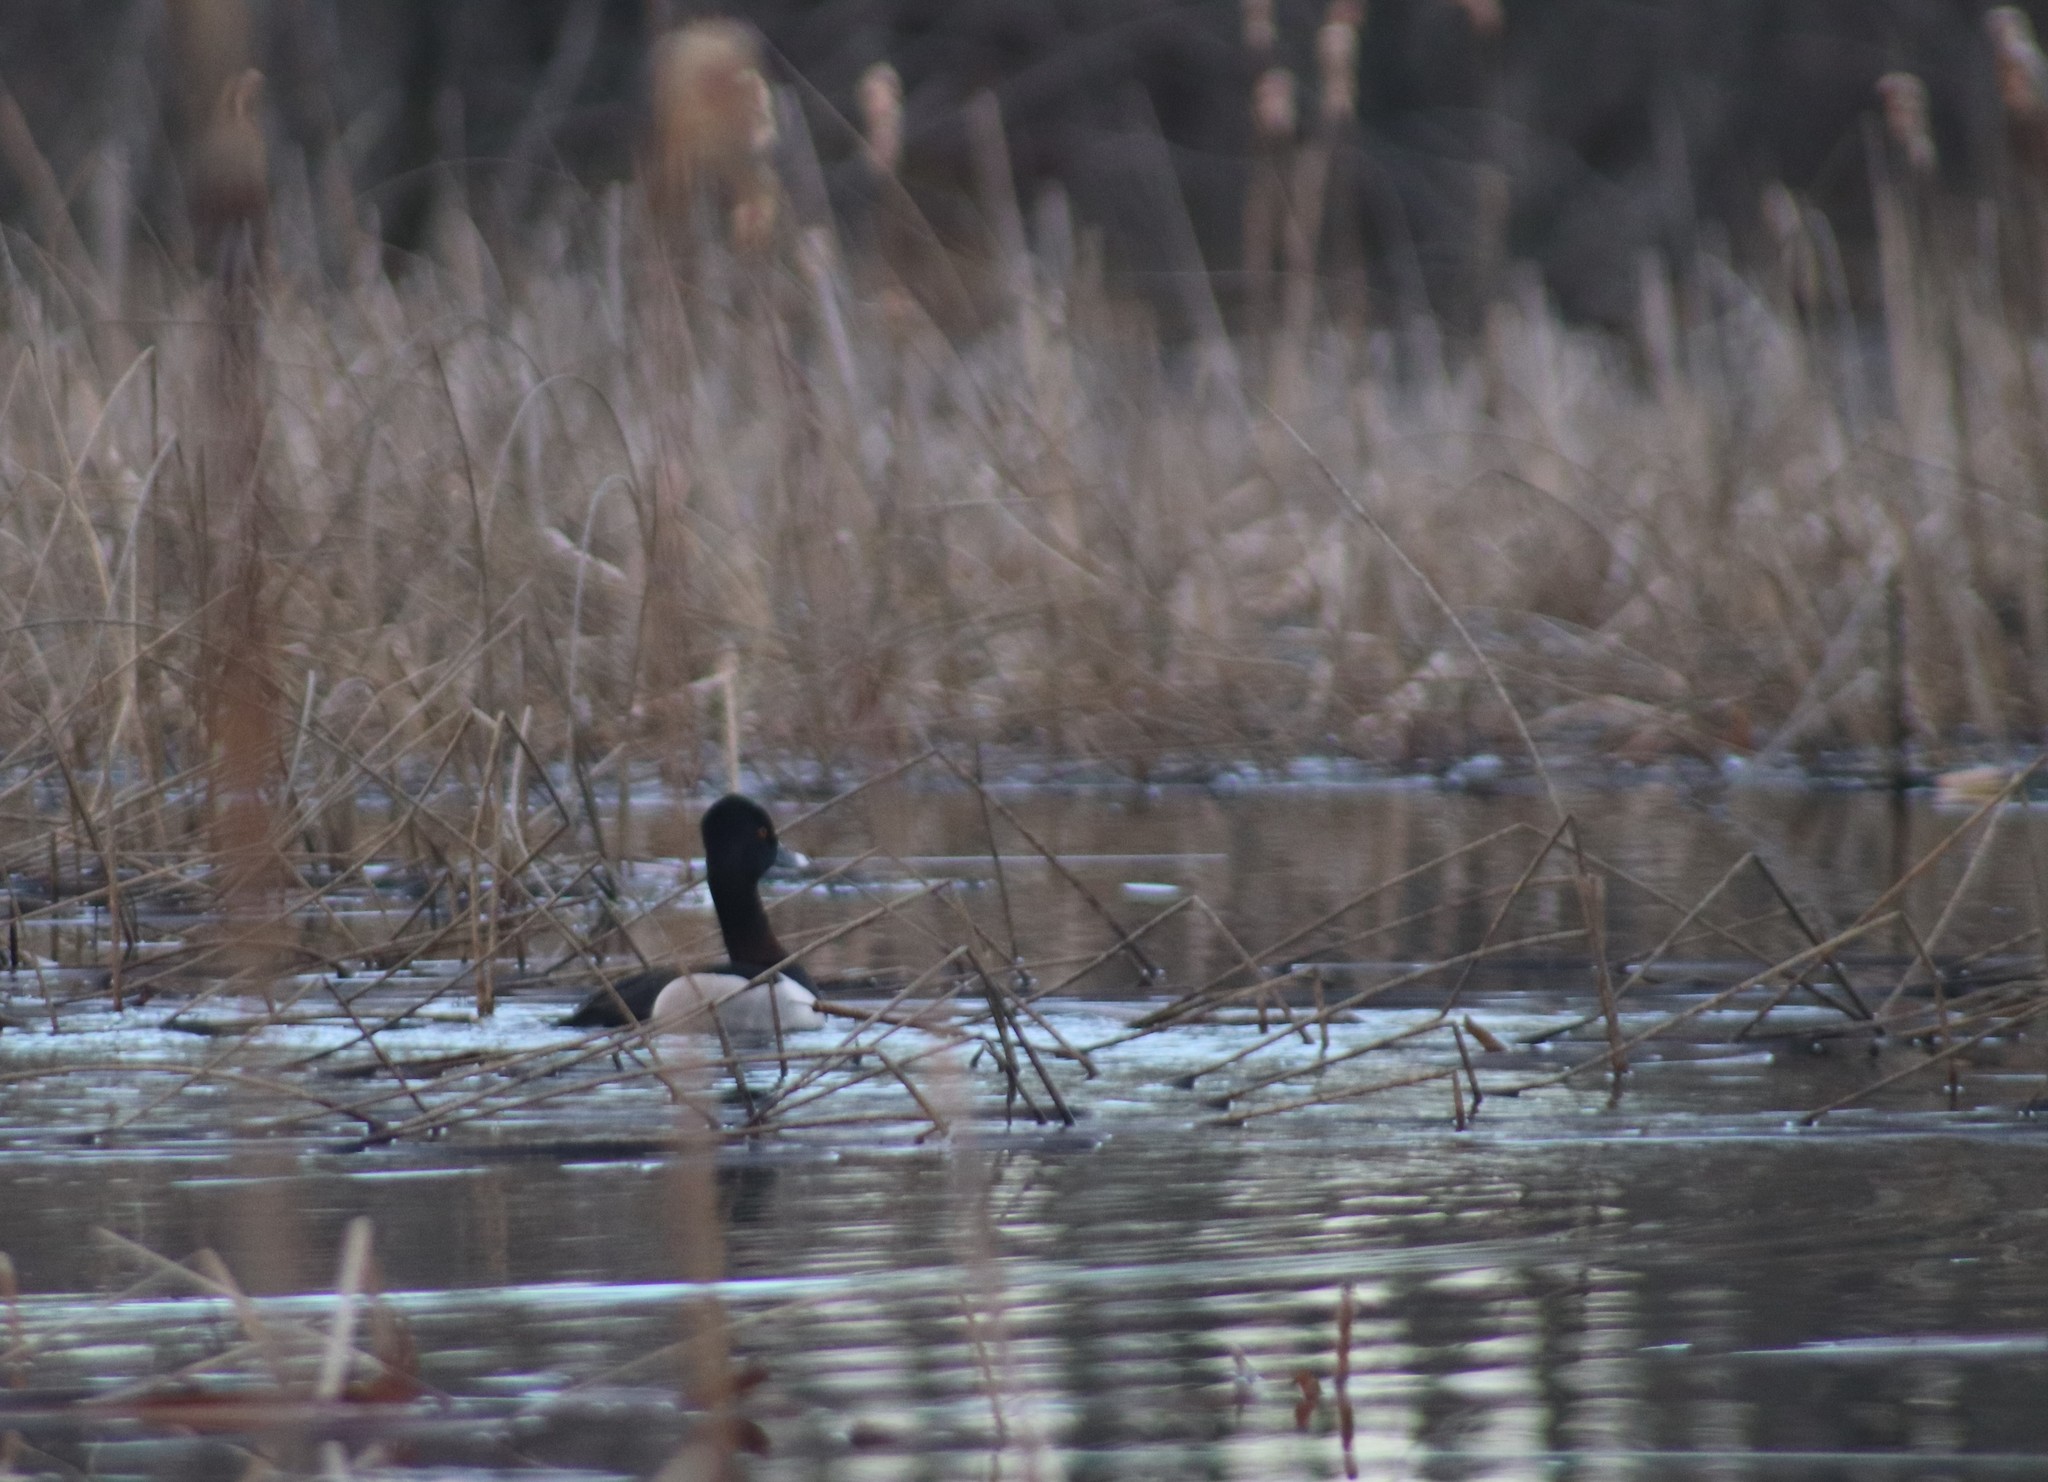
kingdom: Animalia
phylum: Chordata
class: Aves
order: Anseriformes
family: Anatidae
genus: Aythya
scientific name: Aythya collaris
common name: Ring-necked duck
